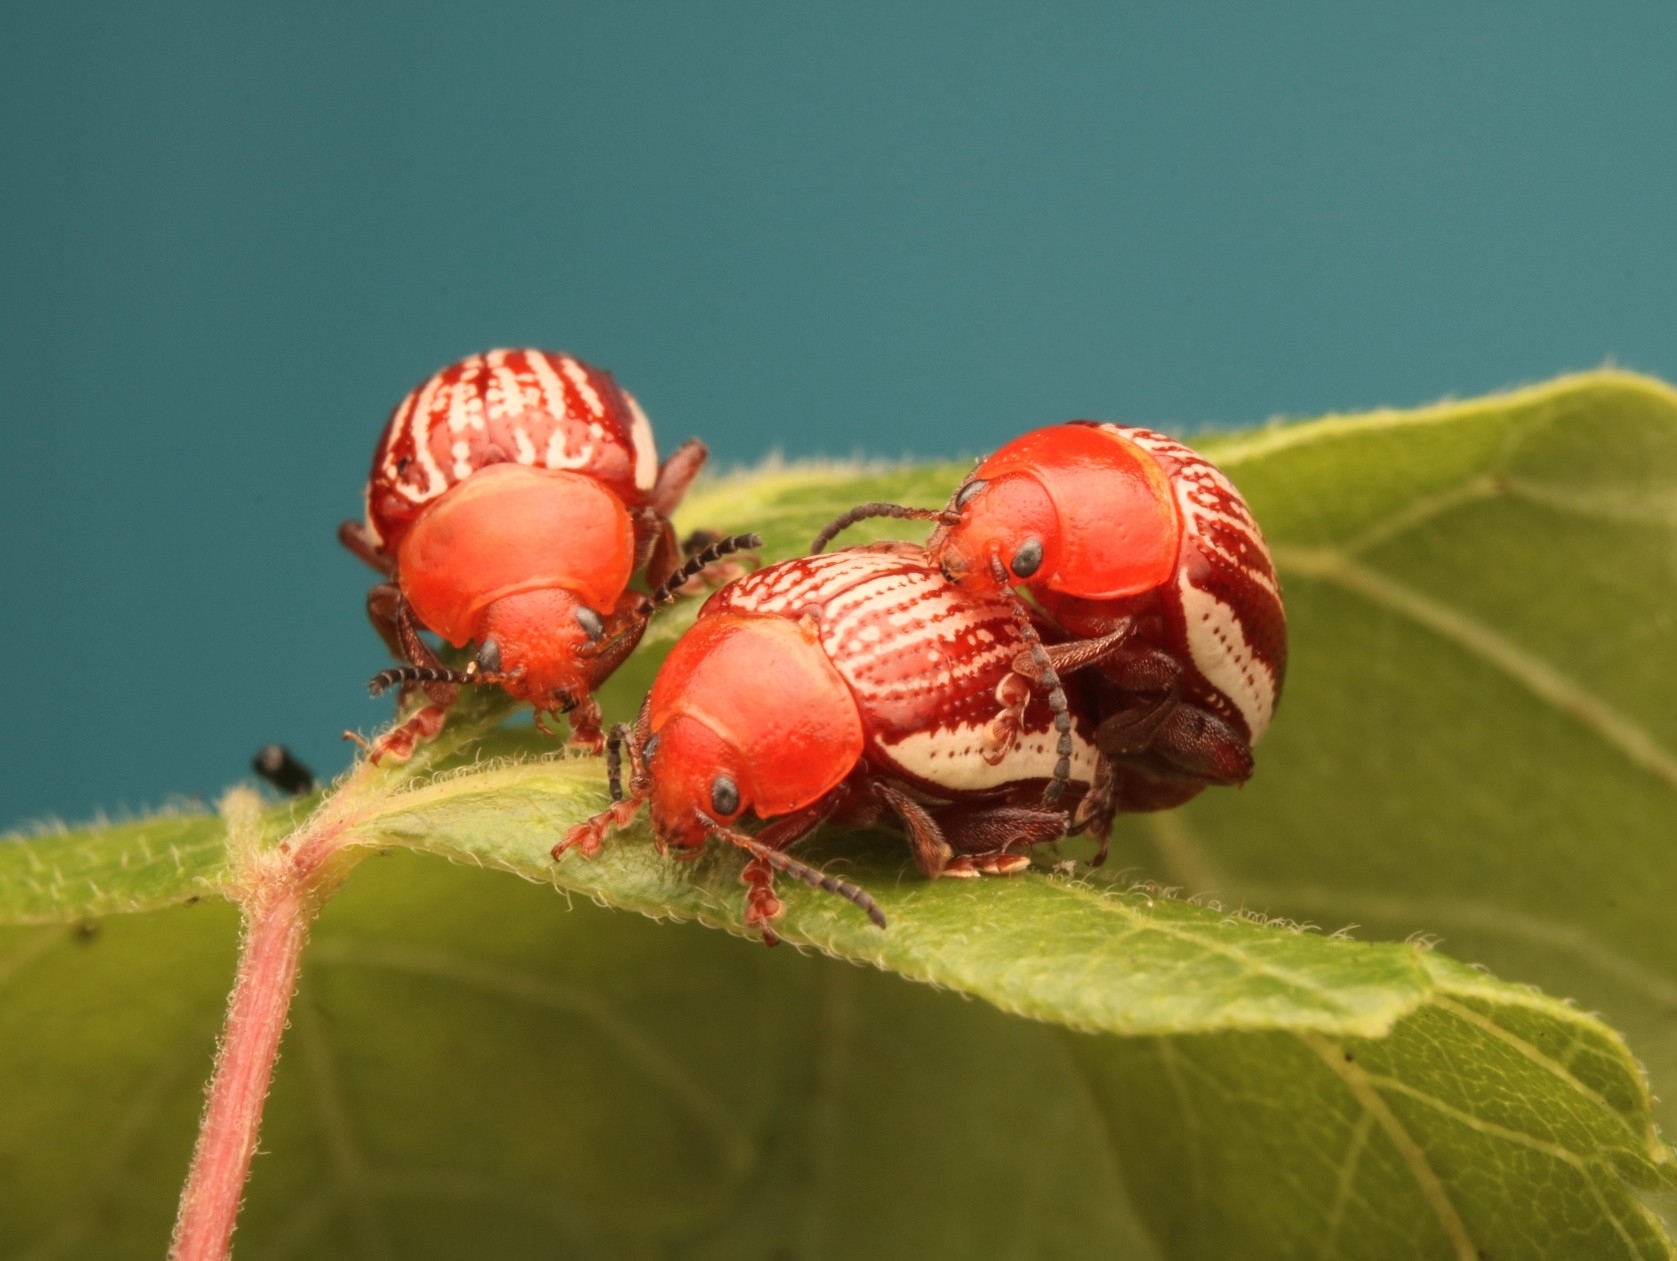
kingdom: Animalia
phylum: Arthropoda
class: Insecta
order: Coleoptera
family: Chrysomelidae
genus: Blepharida
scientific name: Blepharida rhois
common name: Sumac flea beetle
